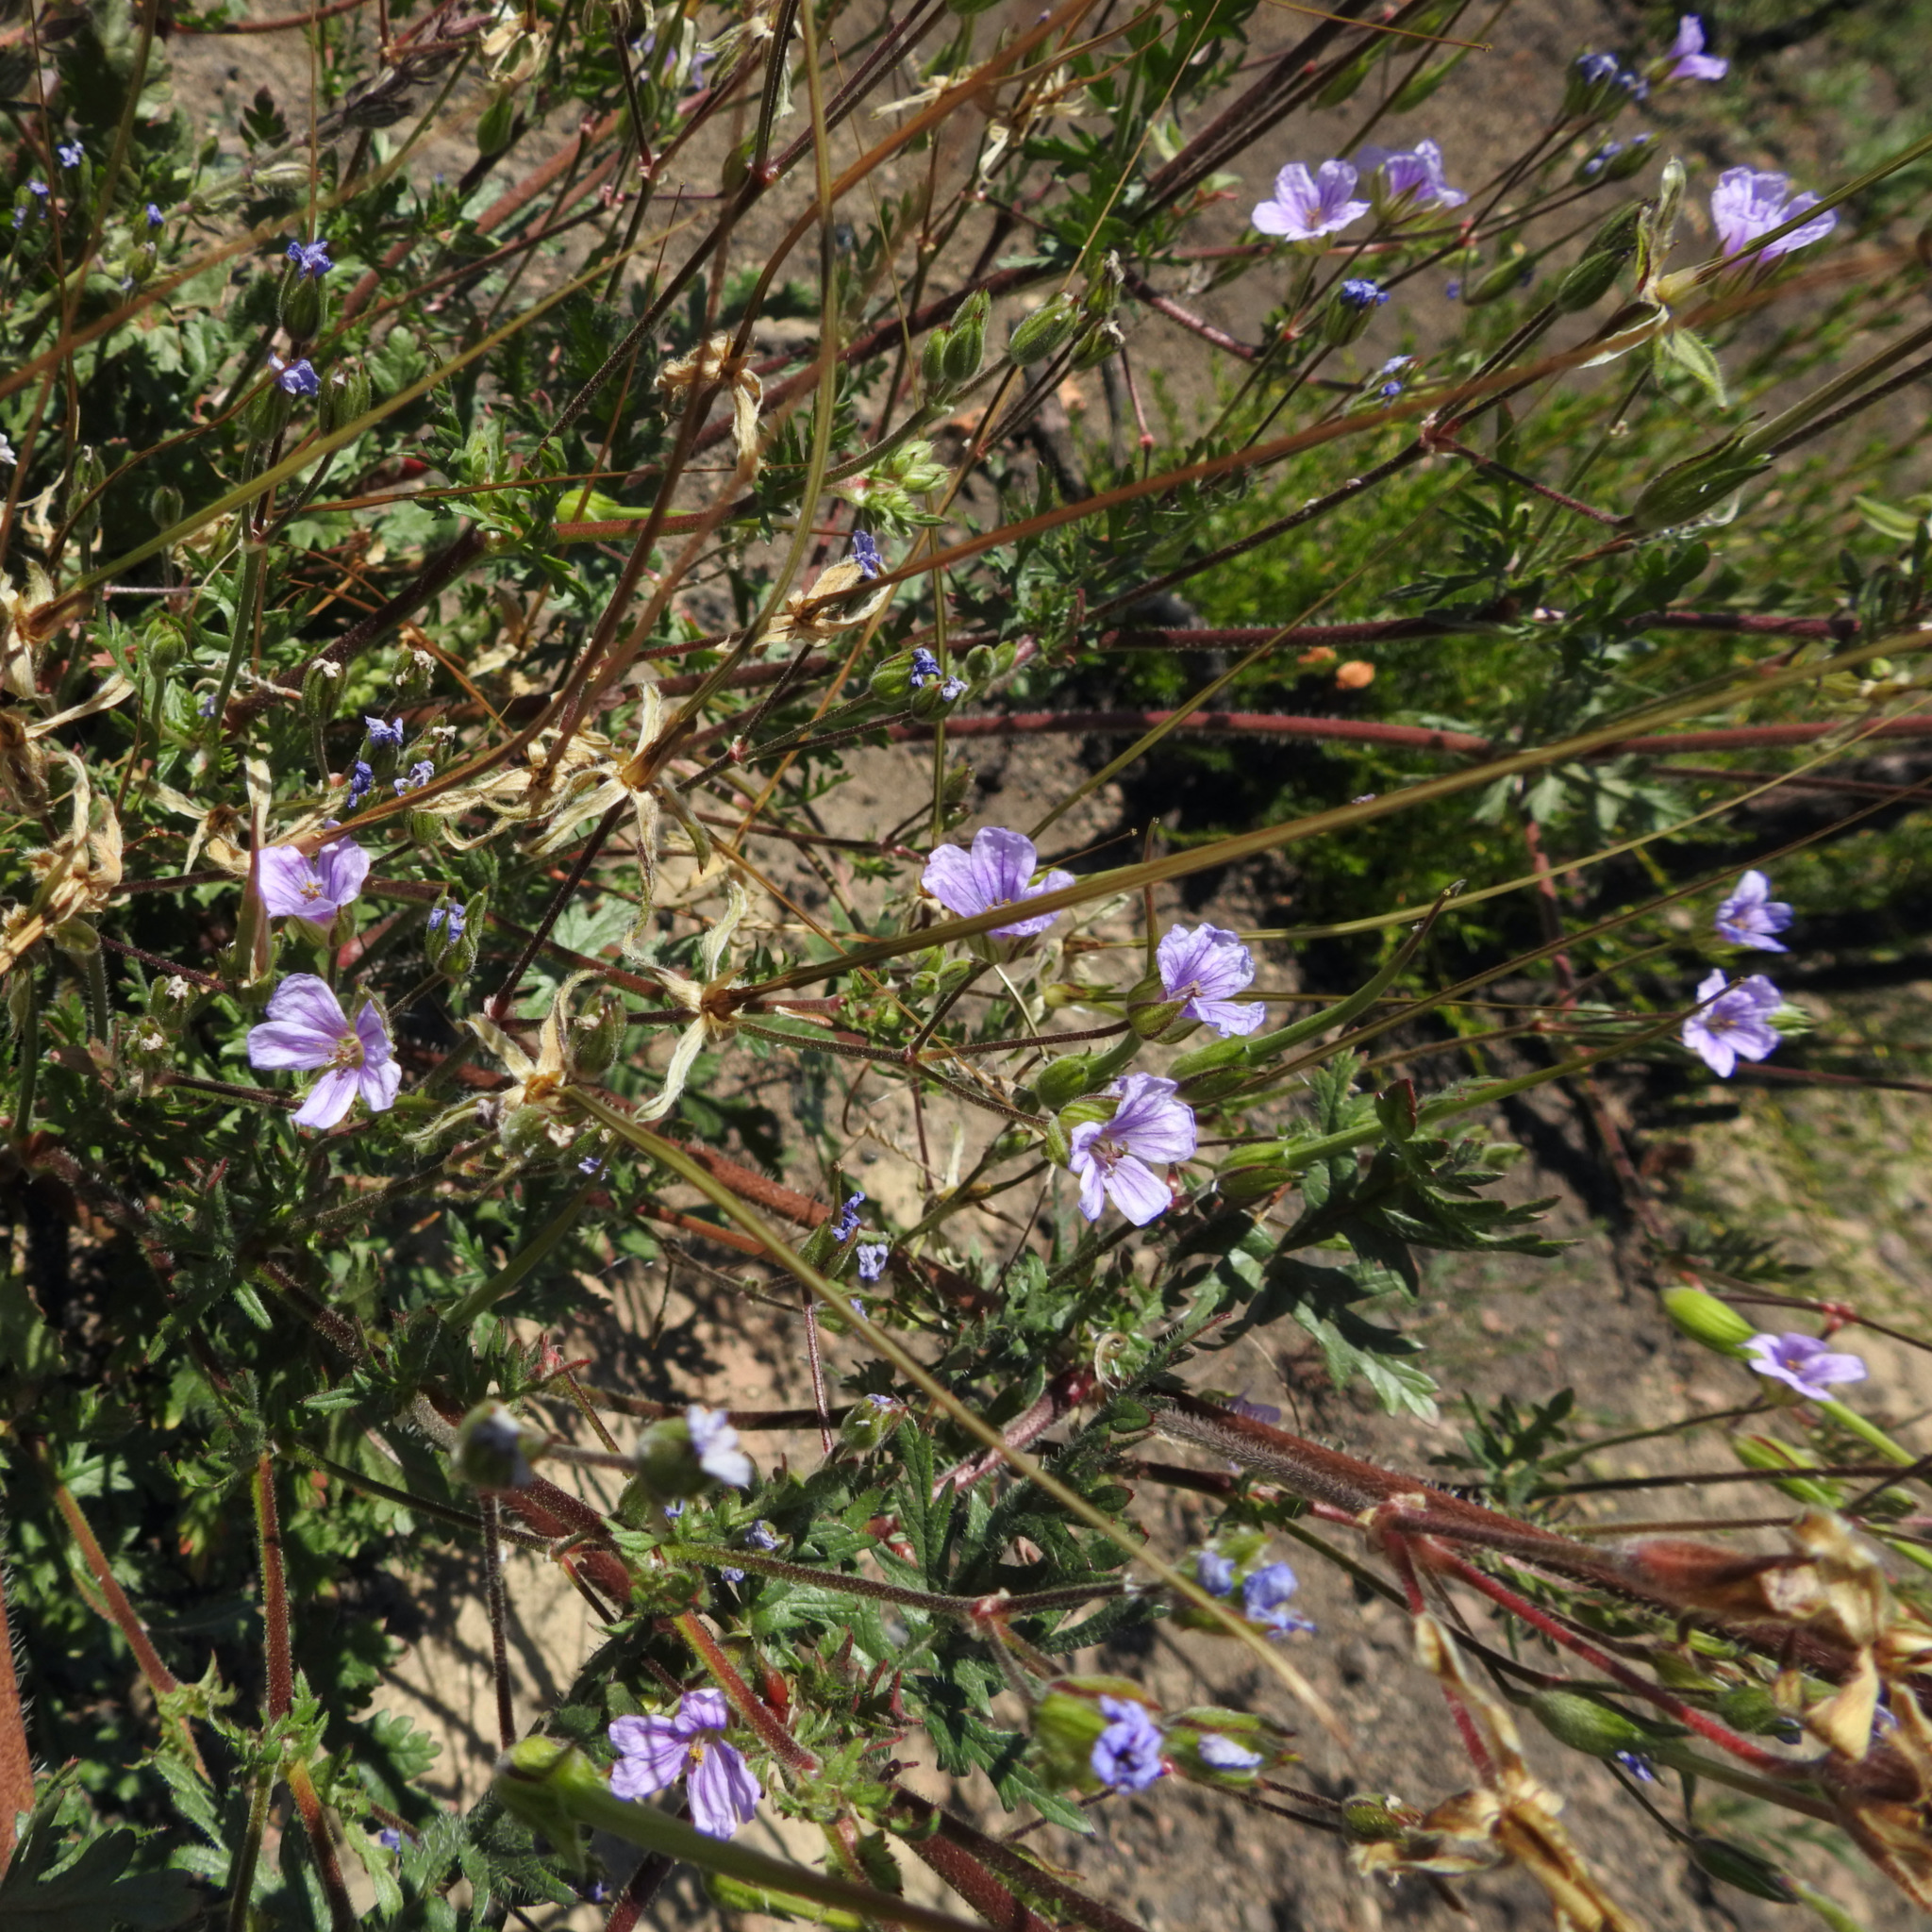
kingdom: Plantae
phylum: Tracheophyta
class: Magnoliopsida
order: Geraniales
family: Geraniaceae
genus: Erodium
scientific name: Erodium botrys
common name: Mediterranean stork's-bill
